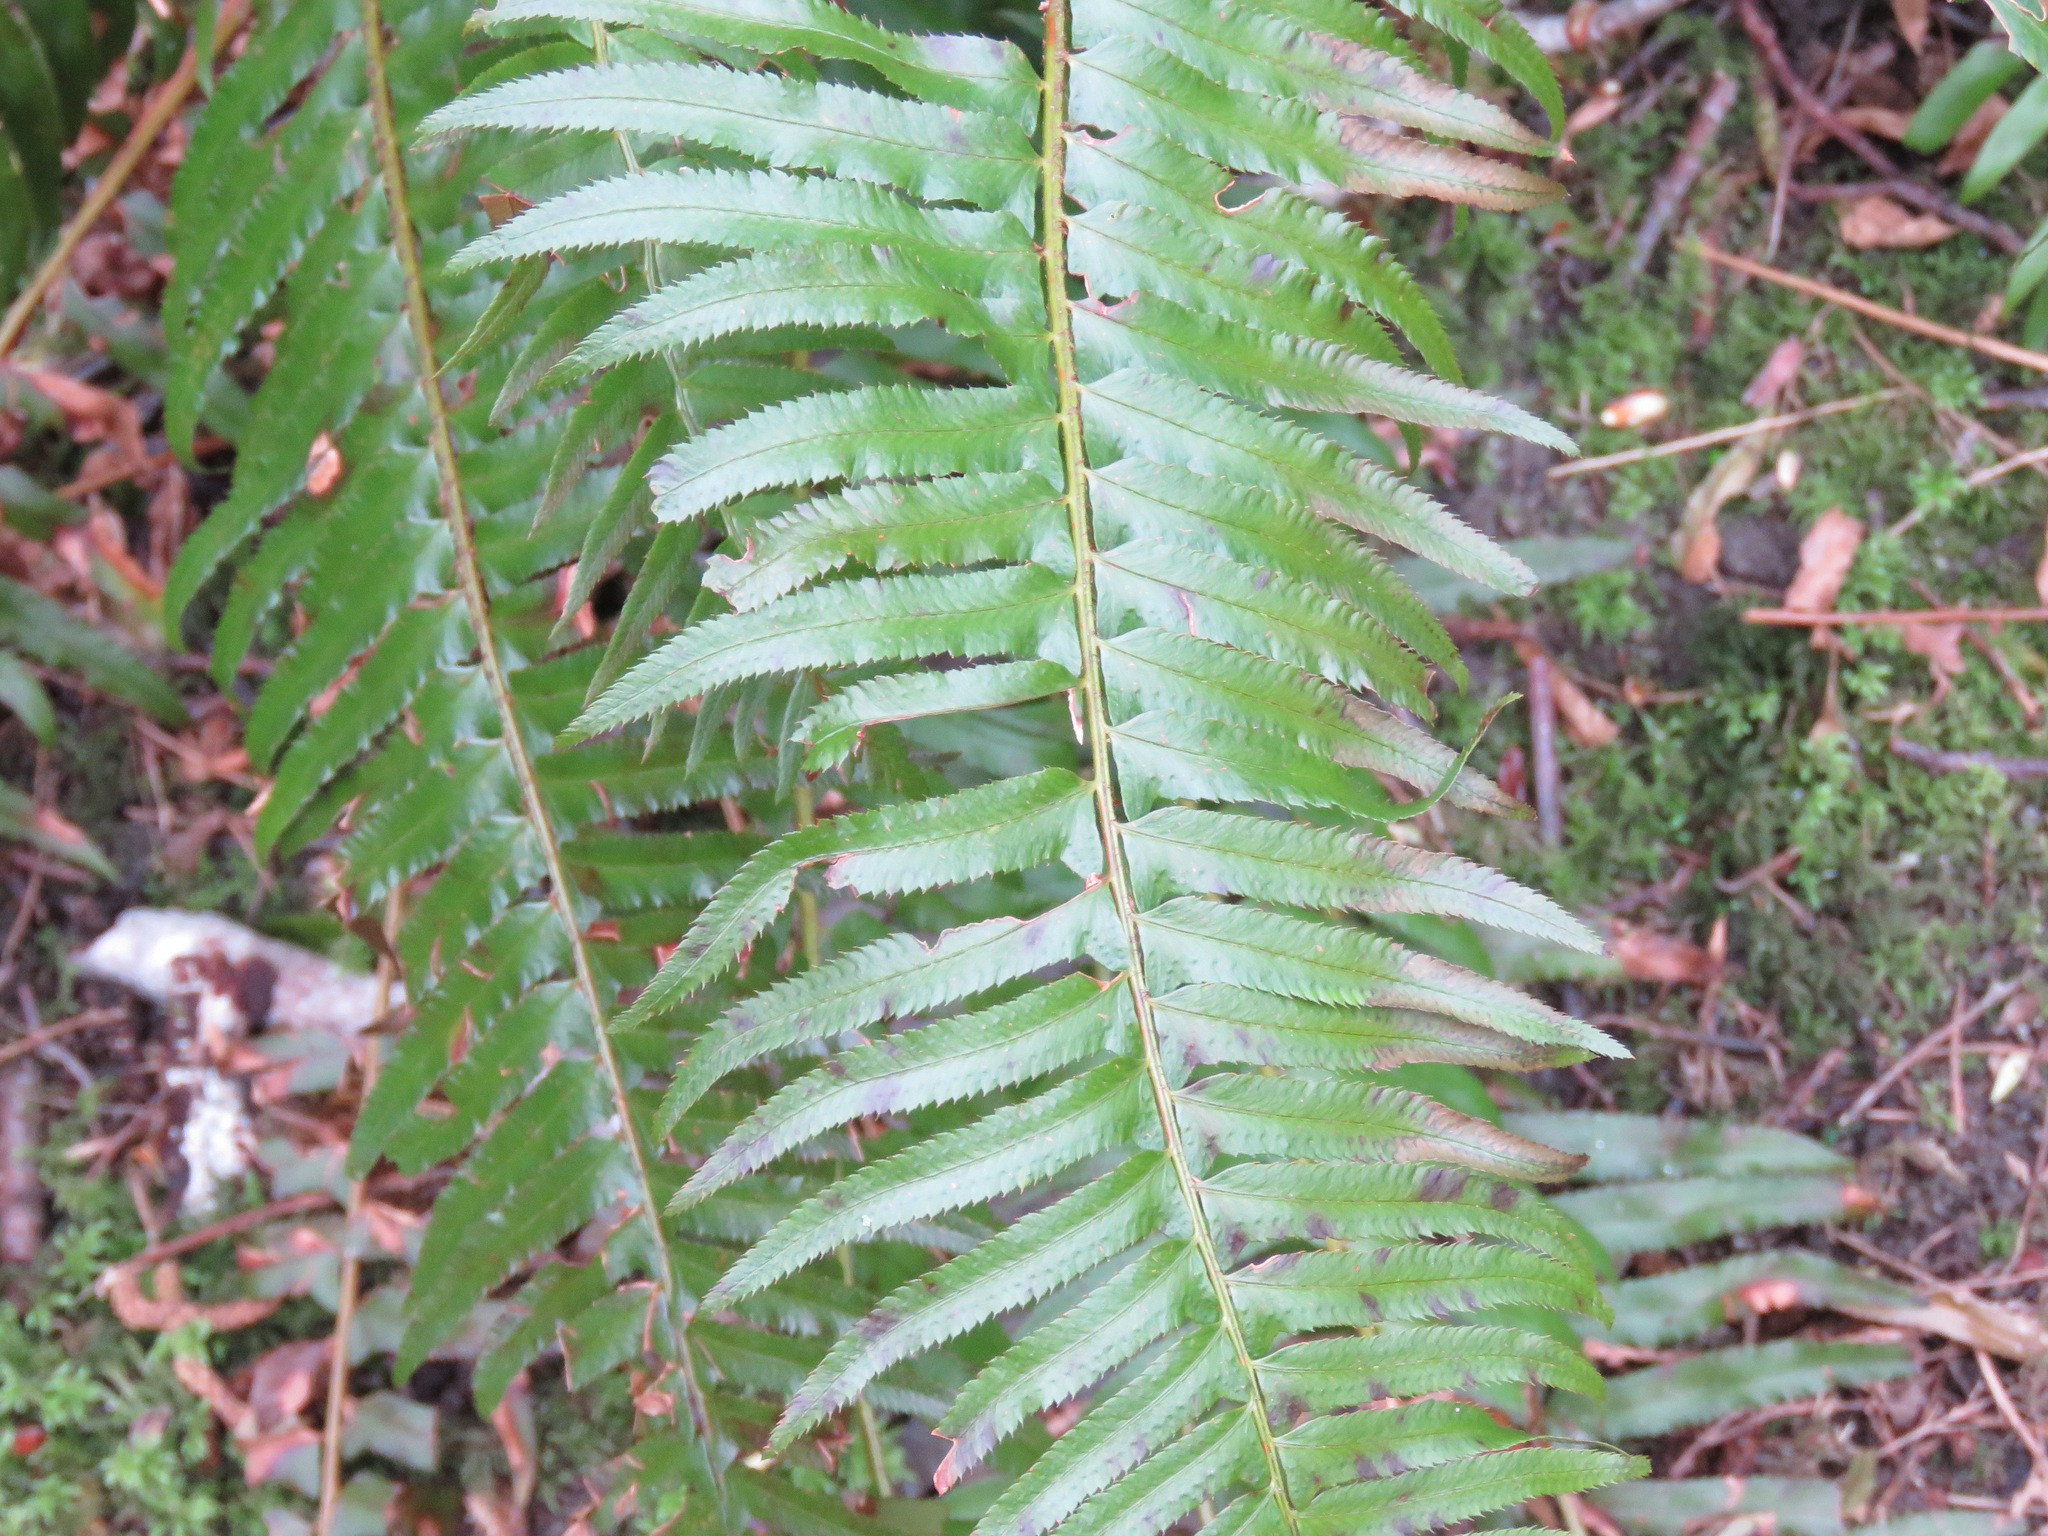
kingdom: Plantae
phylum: Tracheophyta
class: Polypodiopsida
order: Polypodiales
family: Dryopteridaceae
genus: Polystichum
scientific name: Polystichum munitum
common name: Western sword-fern
